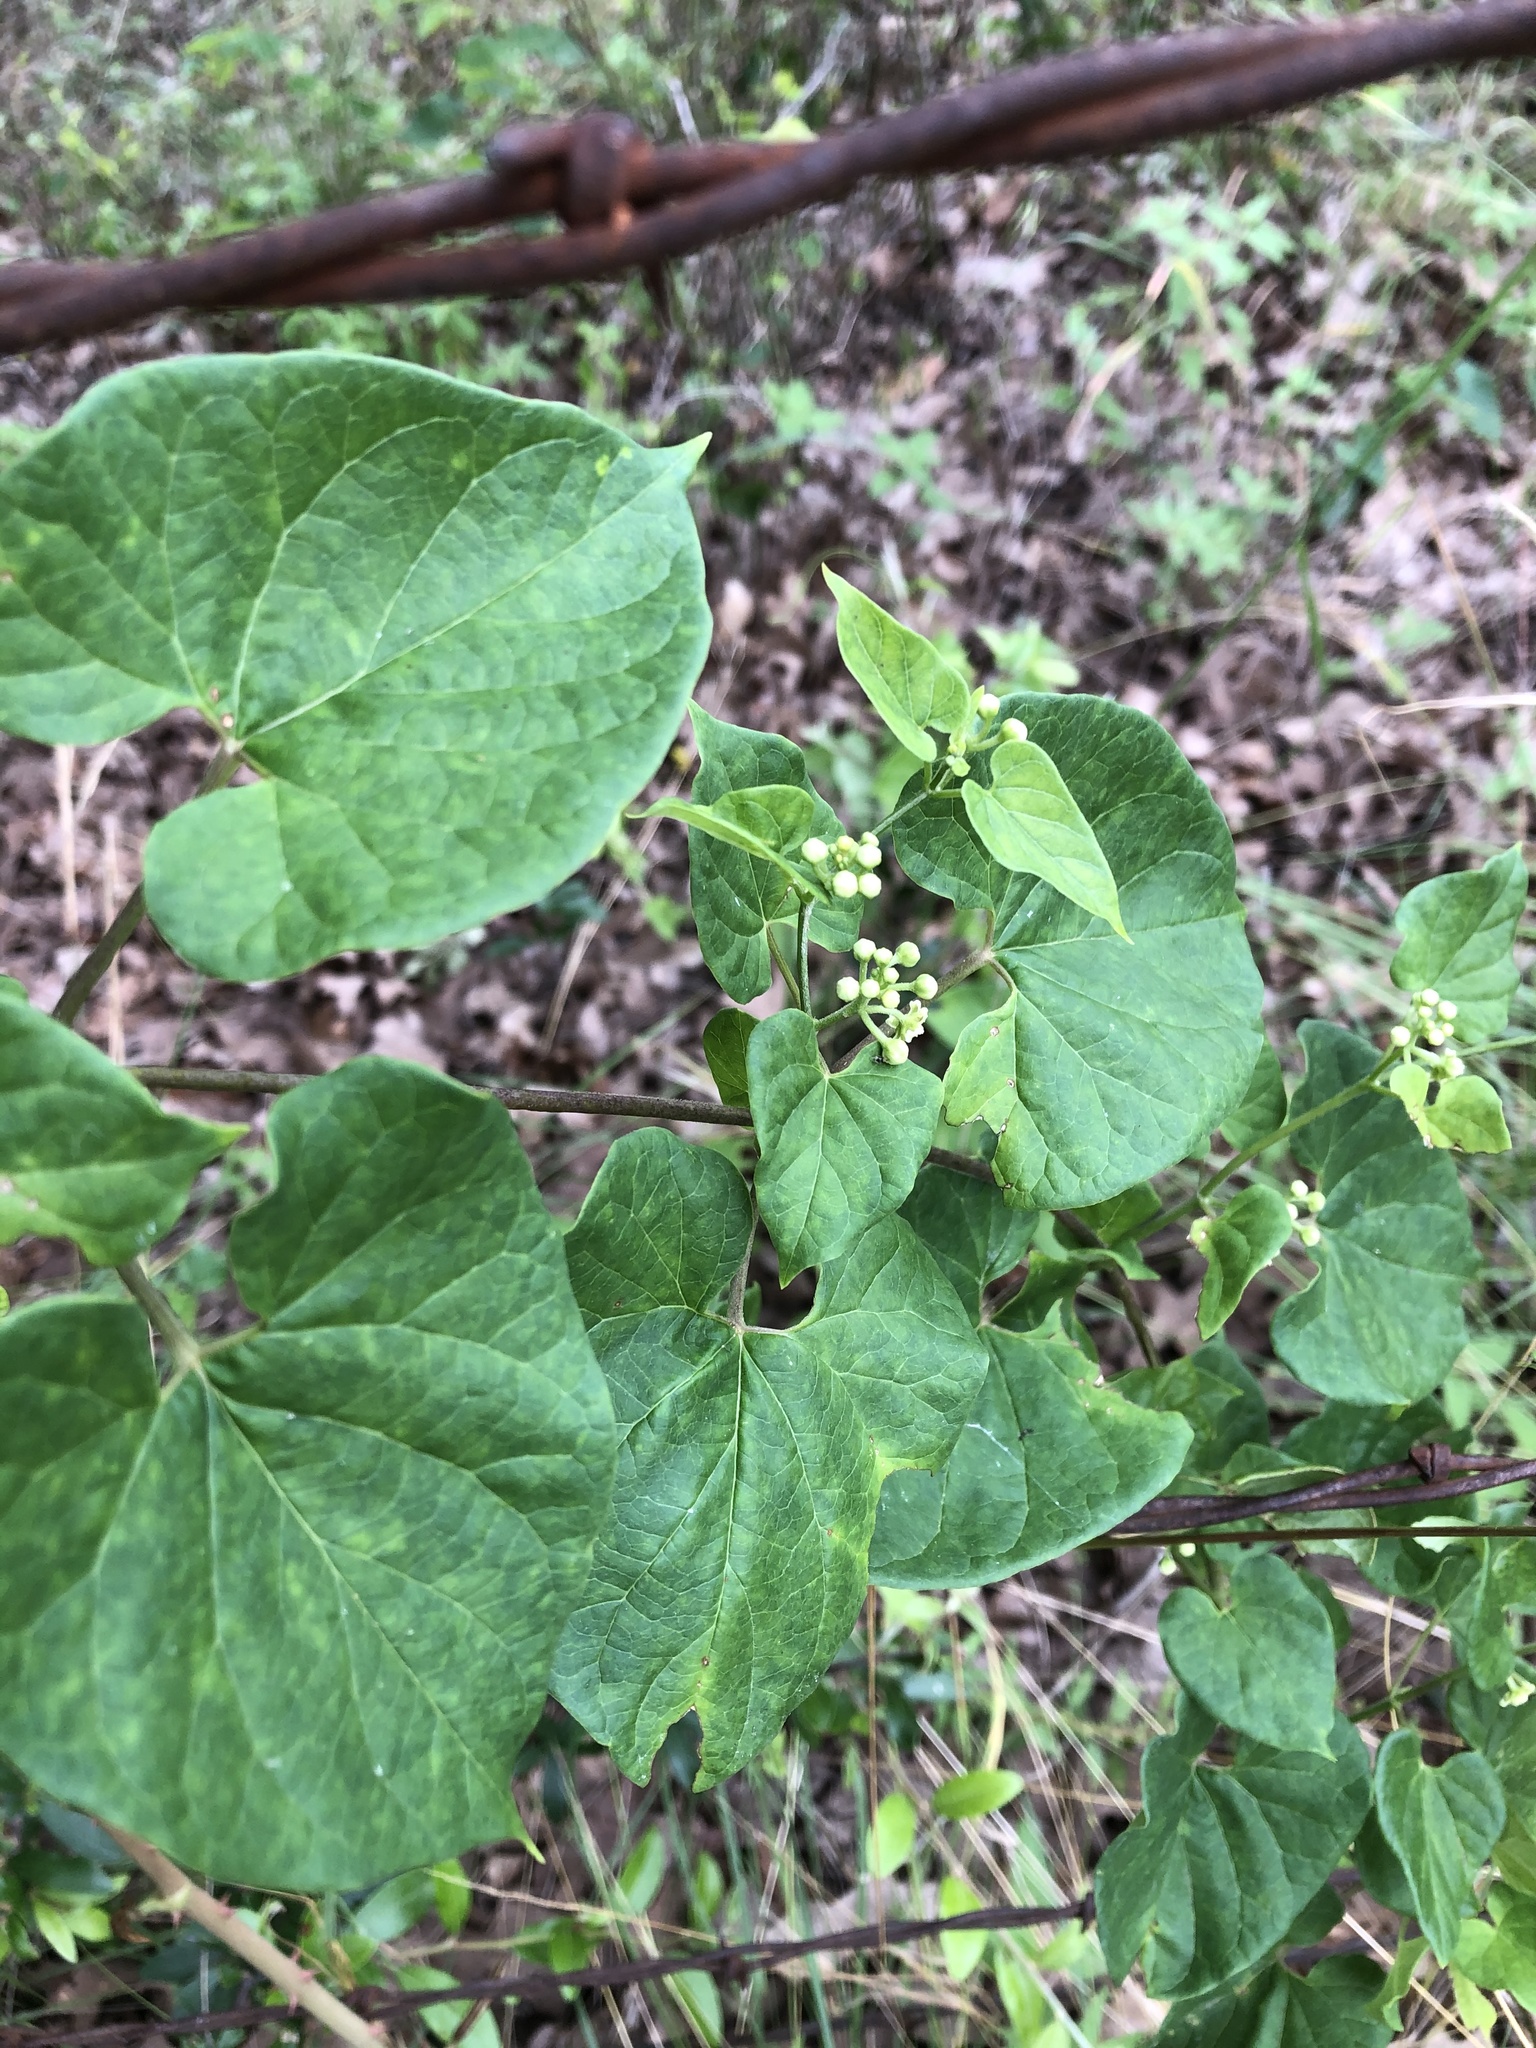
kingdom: Plantae
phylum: Tracheophyta
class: Magnoliopsida
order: Gentianales
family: Apocynaceae
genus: Cynanchum
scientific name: Cynanchum racemosum
